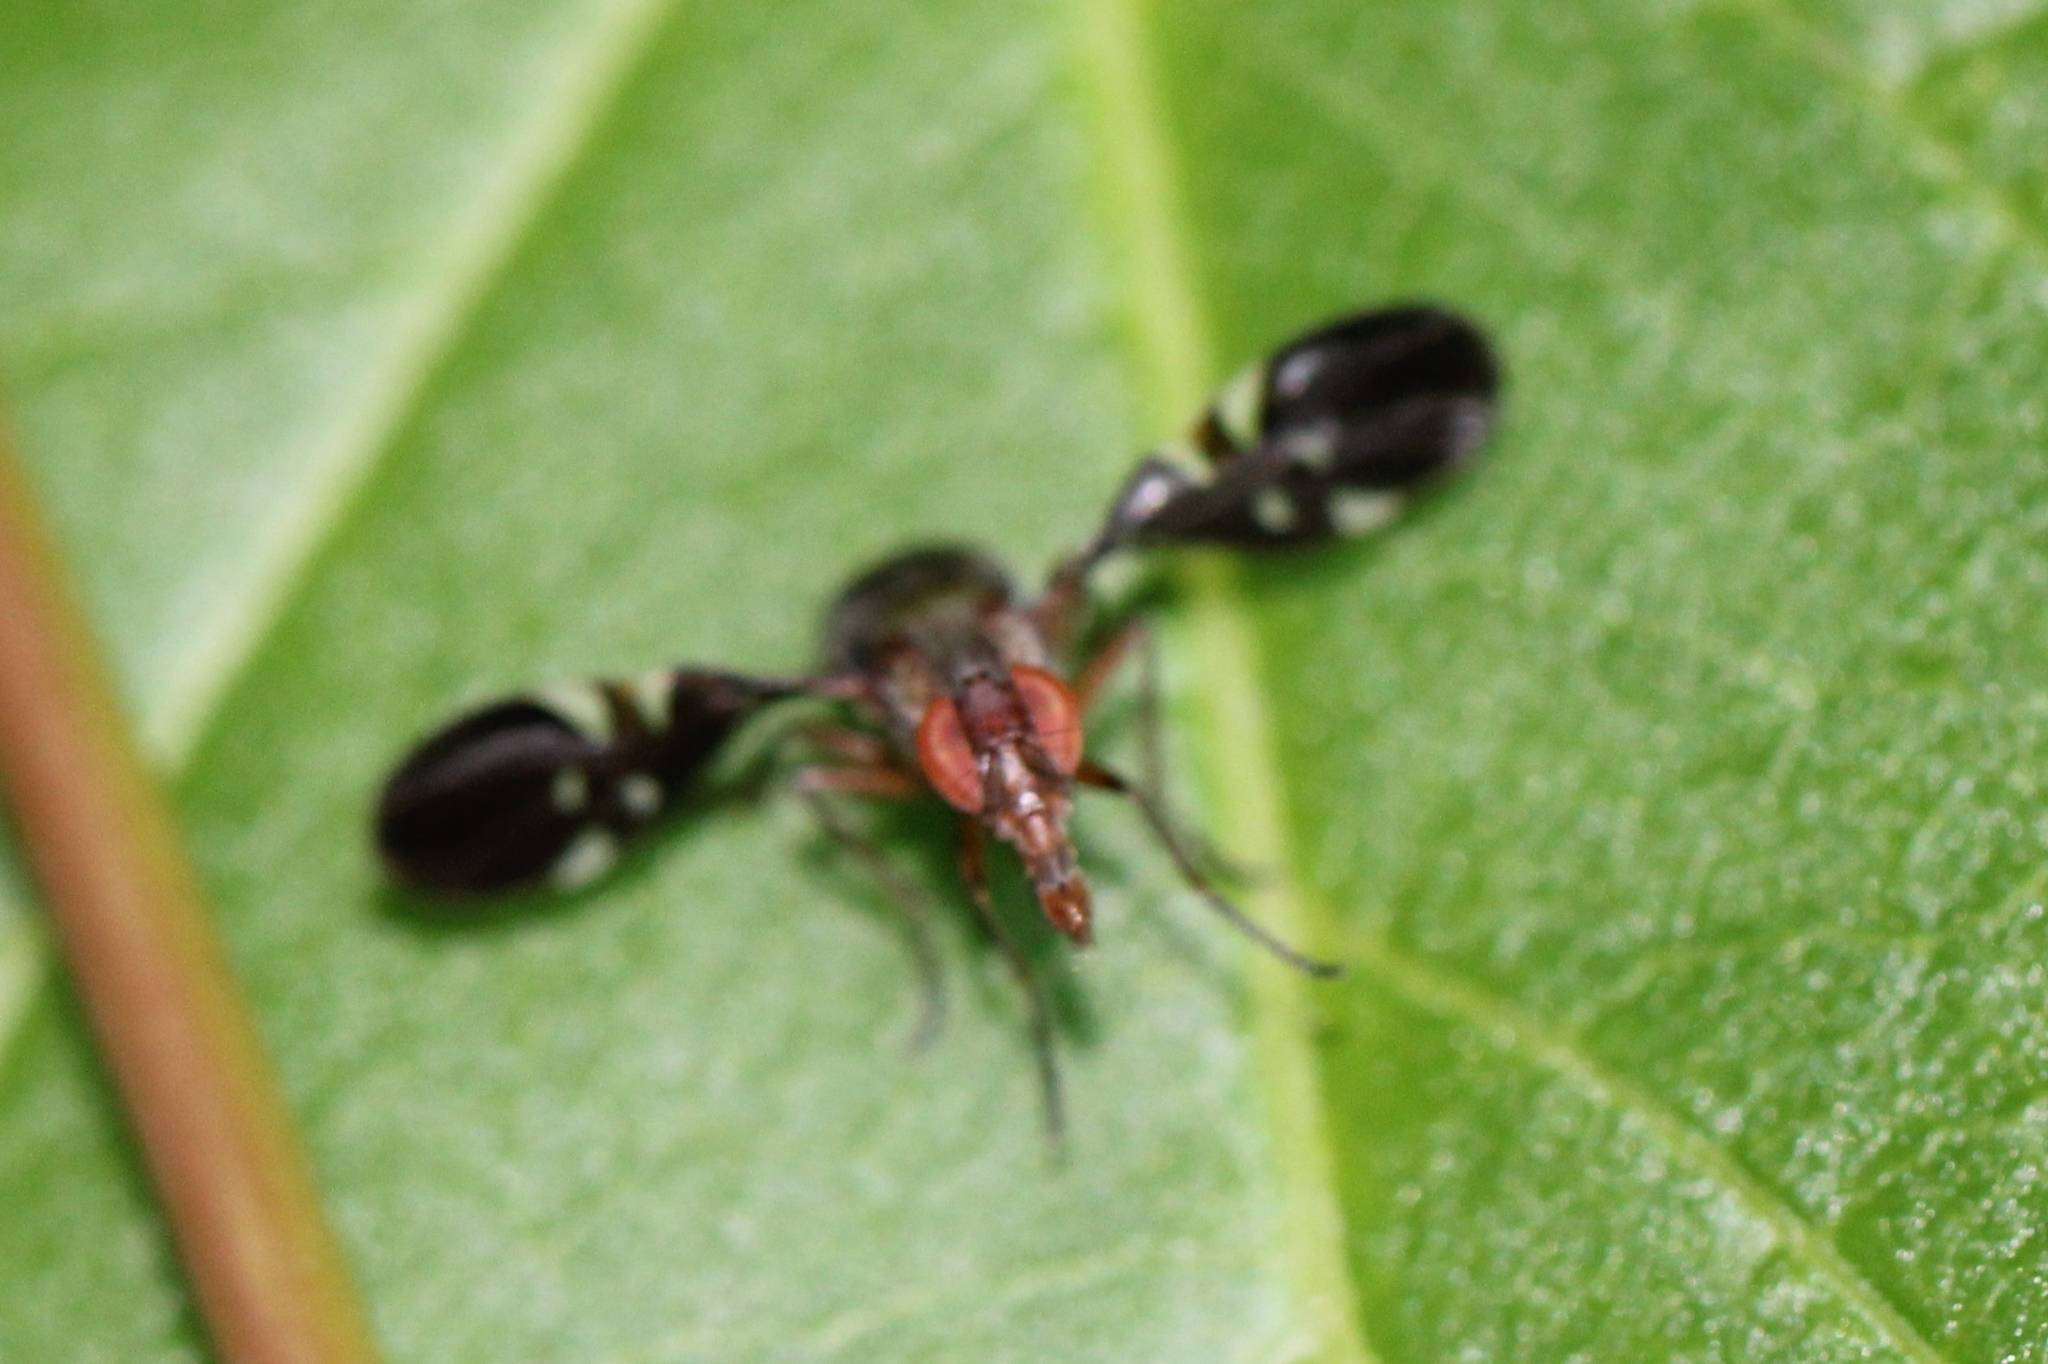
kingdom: Animalia
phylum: Arthropoda
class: Insecta
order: Diptera
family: Ulidiidae
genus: Delphinia
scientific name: Delphinia picta
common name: Common picture-winged fly
